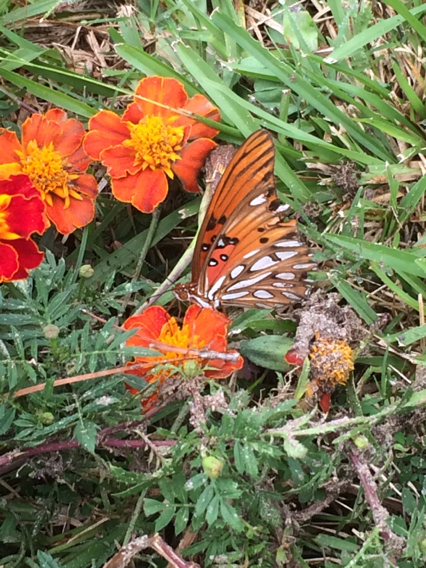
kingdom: Animalia
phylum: Arthropoda
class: Insecta
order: Lepidoptera
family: Nymphalidae
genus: Dione
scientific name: Dione vanillae
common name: Gulf fritillary
